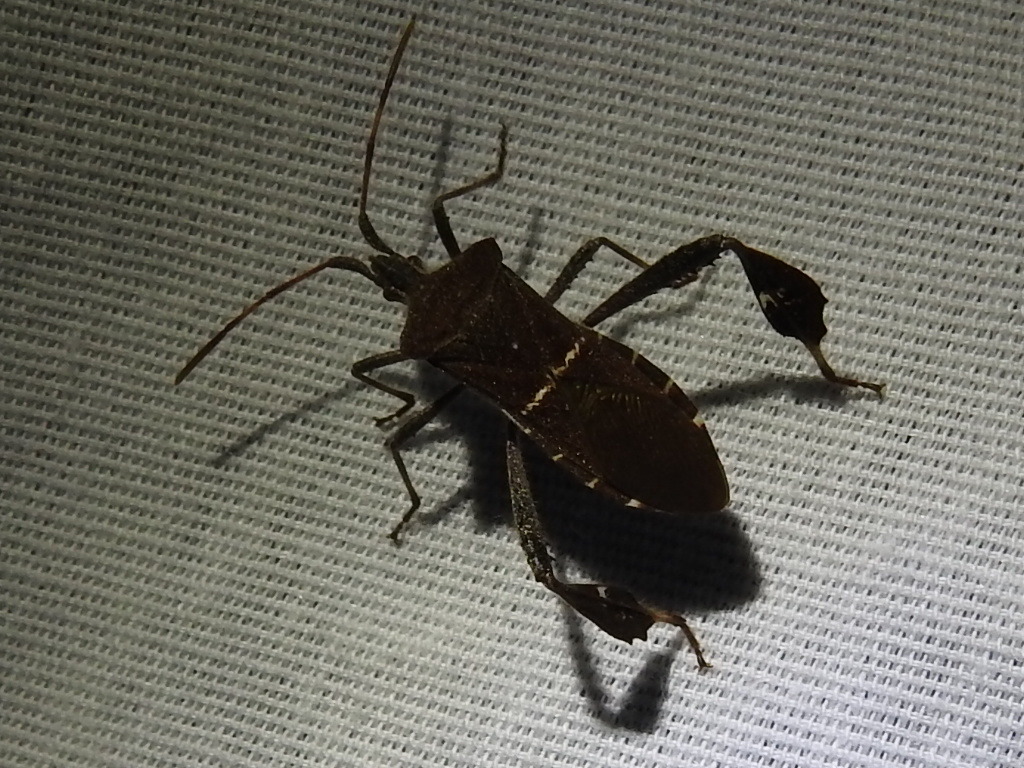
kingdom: Animalia
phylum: Arthropoda
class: Insecta
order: Hemiptera
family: Coreidae
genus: Leptoglossus
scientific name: Leptoglossus phyllopus
